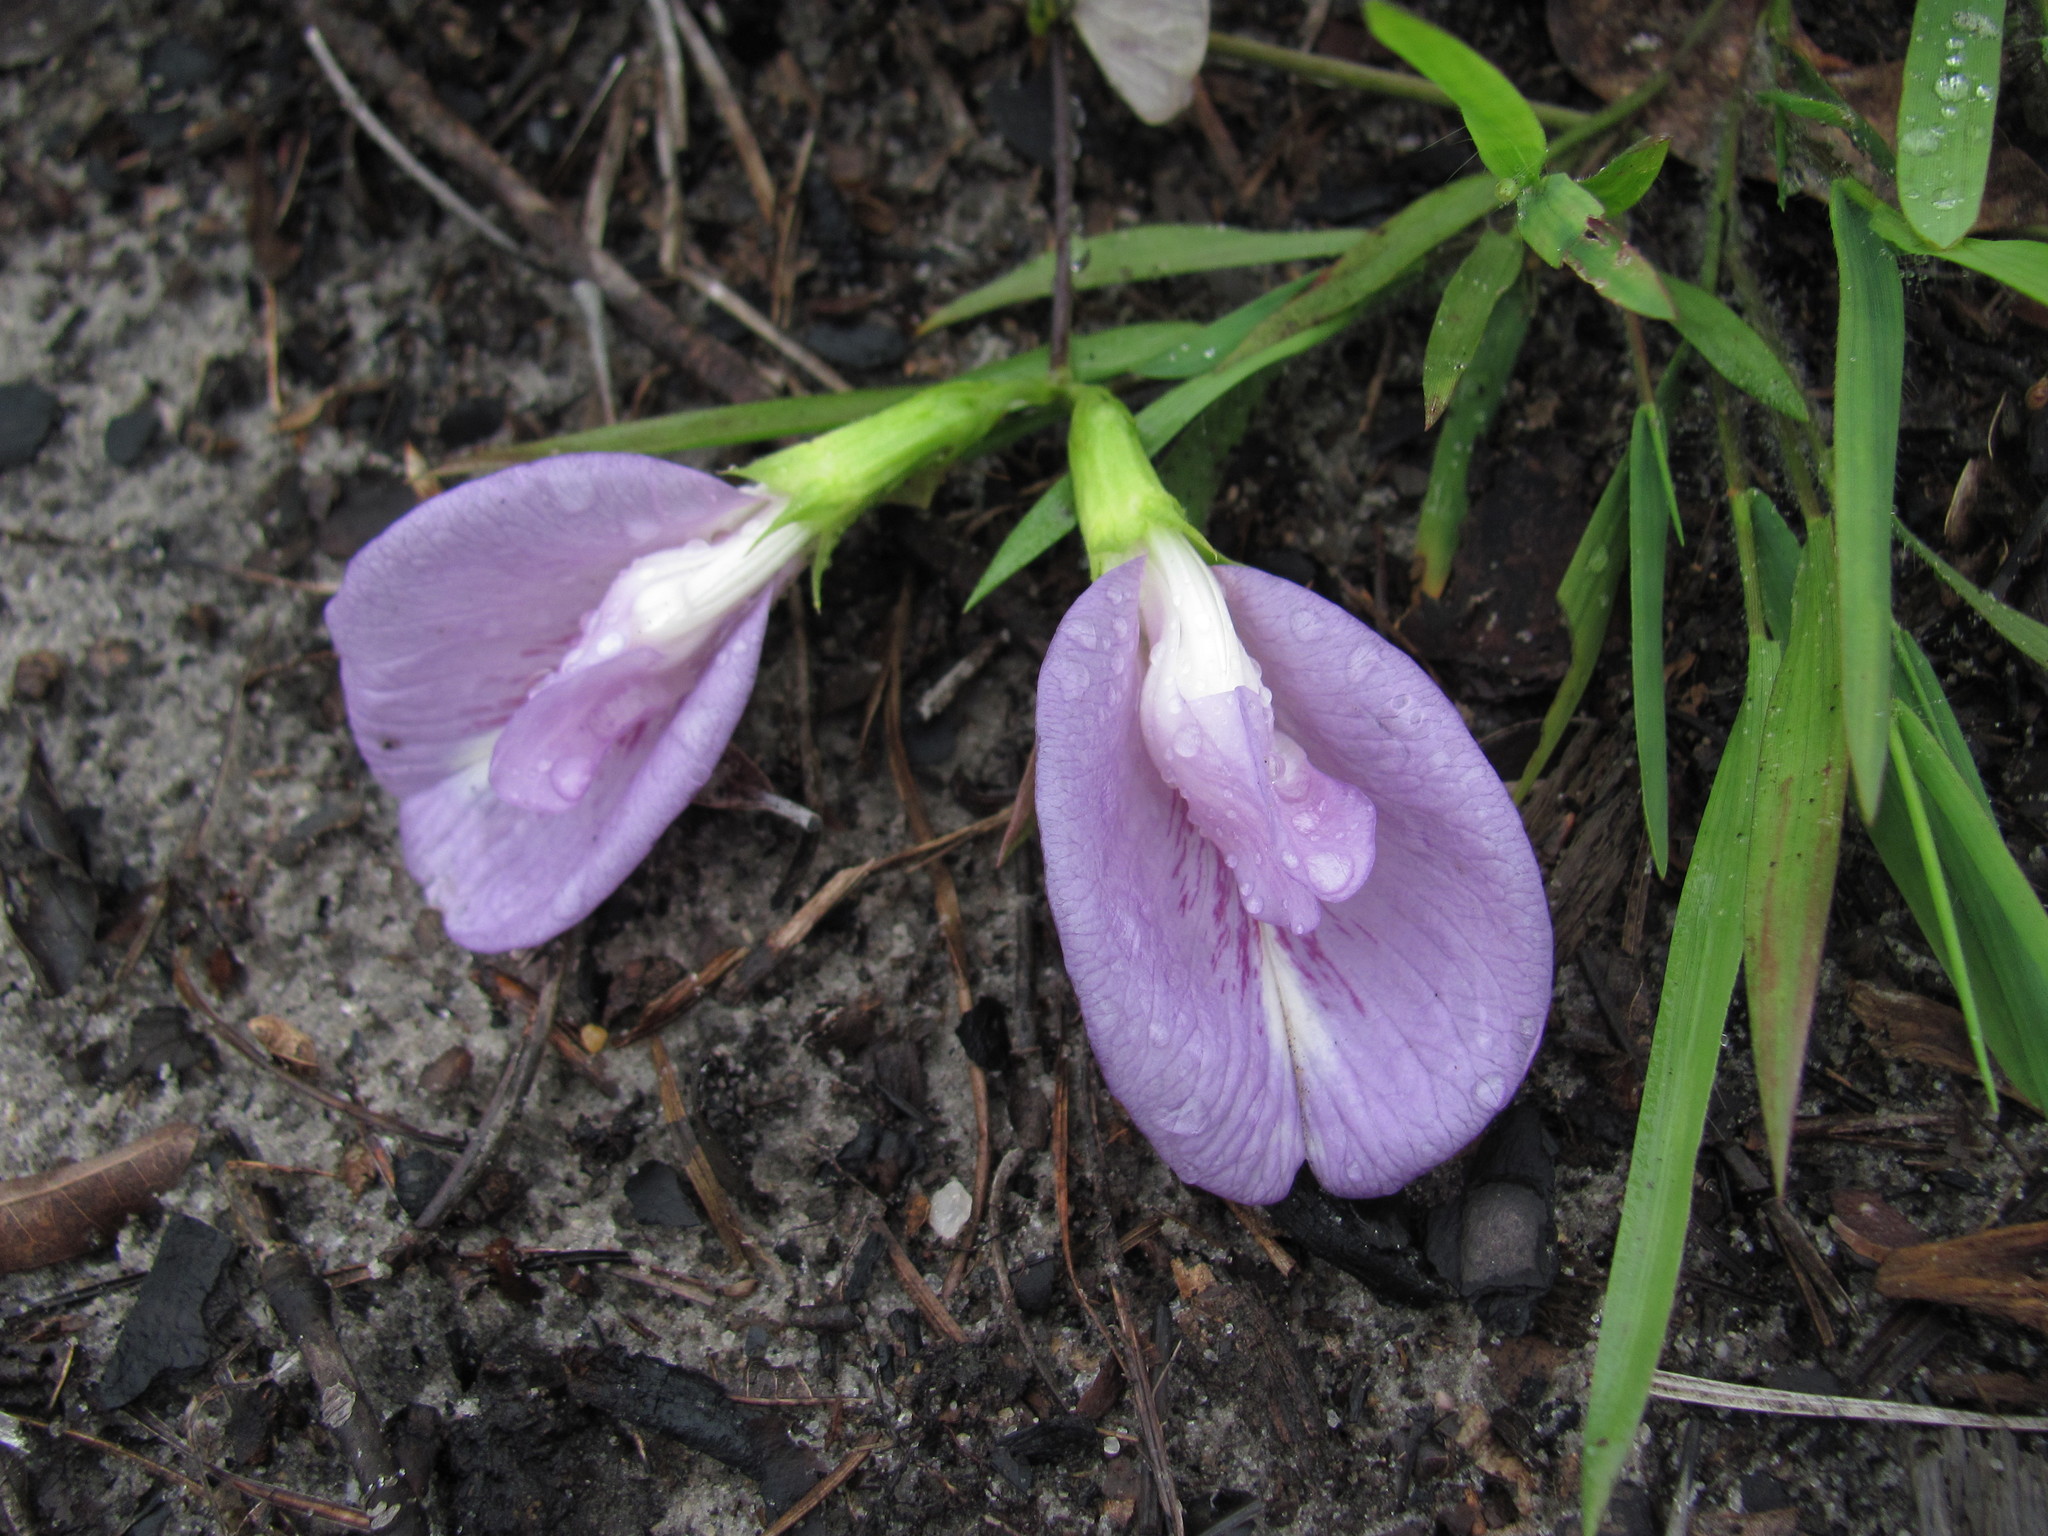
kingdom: Plantae
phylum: Tracheophyta
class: Magnoliopsida
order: Fabales
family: Fabaceae
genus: Clitoria
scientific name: Clitoria mariana
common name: Butterfly-pea
